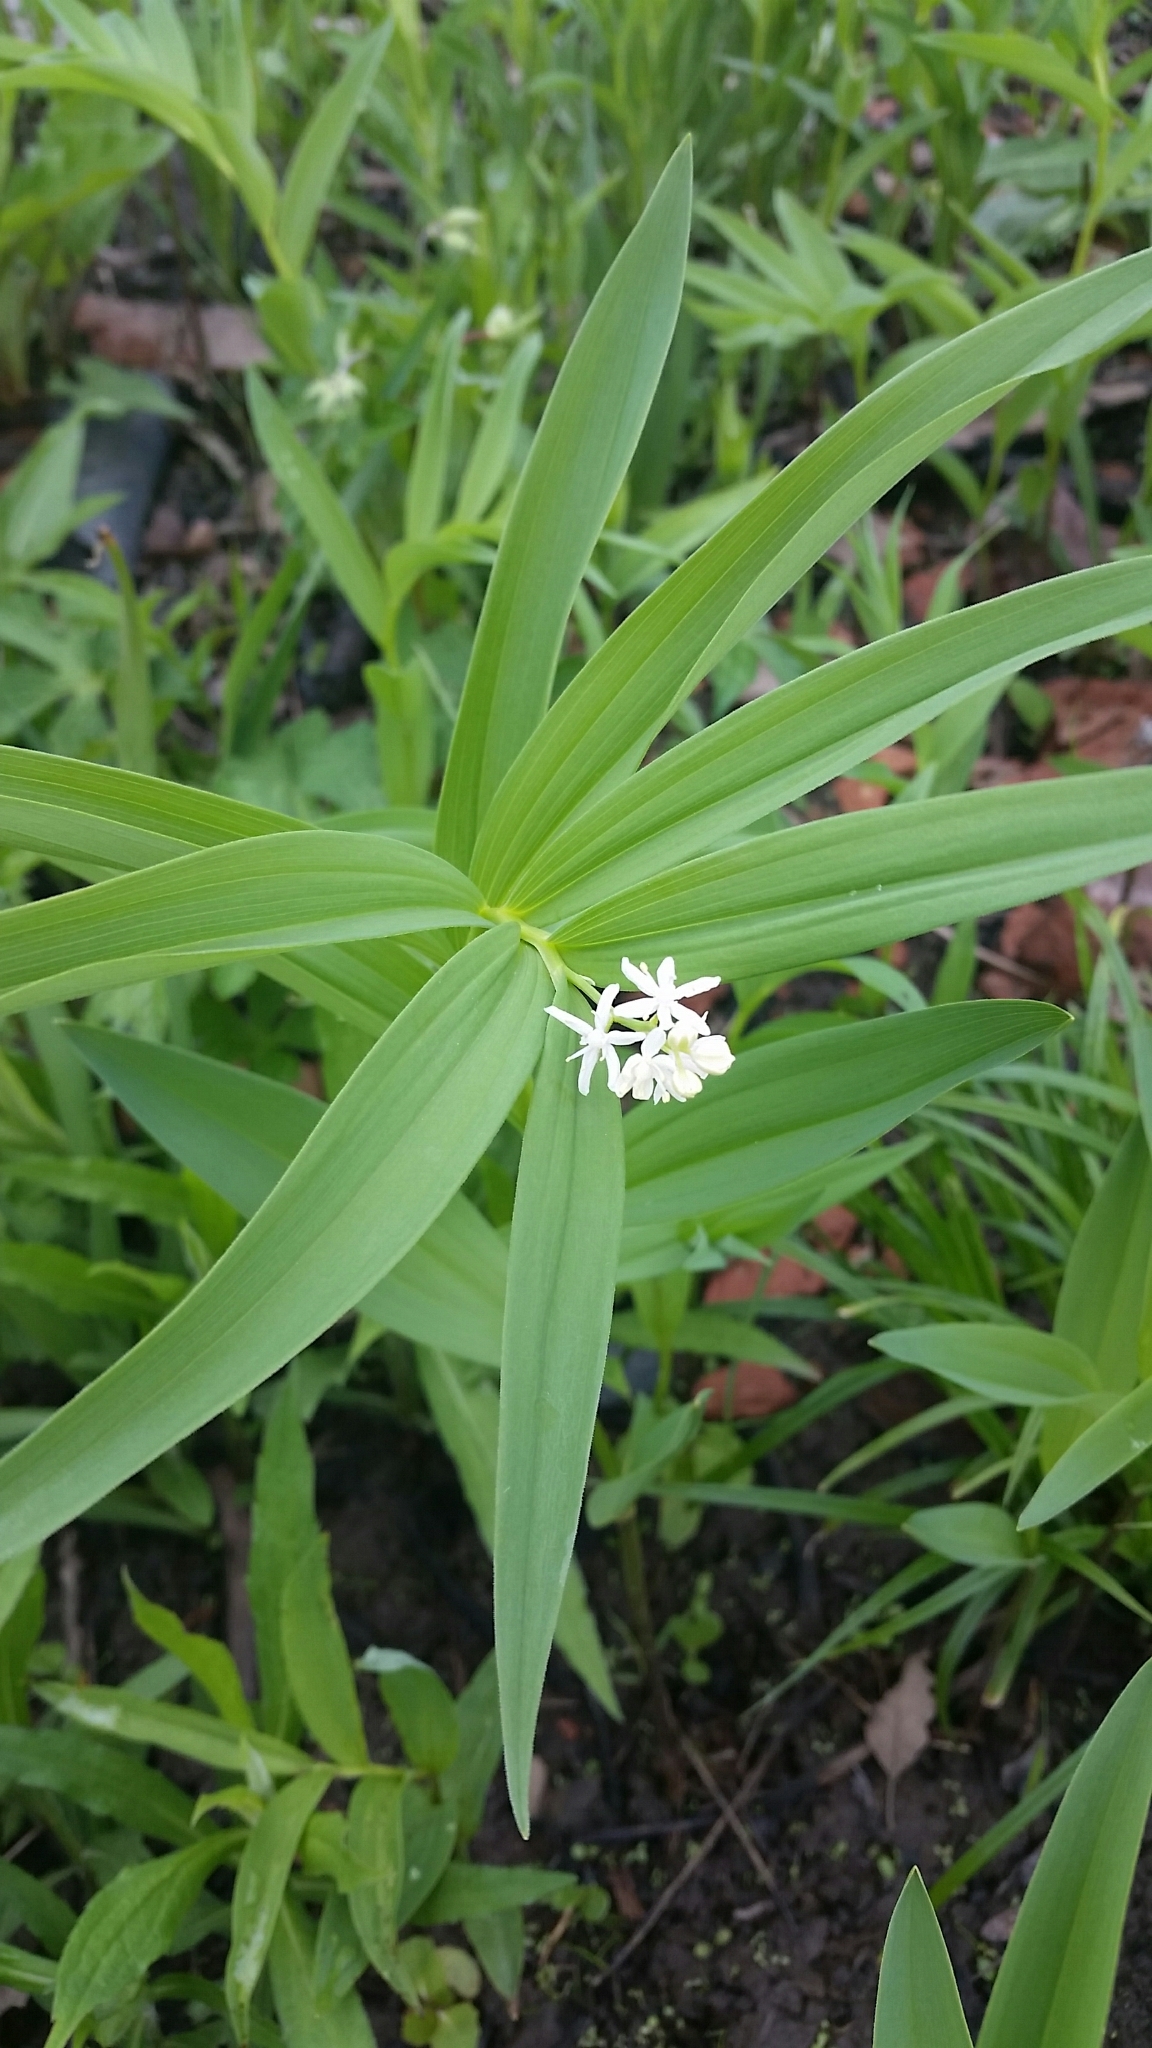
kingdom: Plantae
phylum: Tracheophyta
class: Liliopsida
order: Asparagales
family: Asparagaceae
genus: Maianthemum
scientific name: Maianthemum stellatum
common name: Little false solomon's seal
